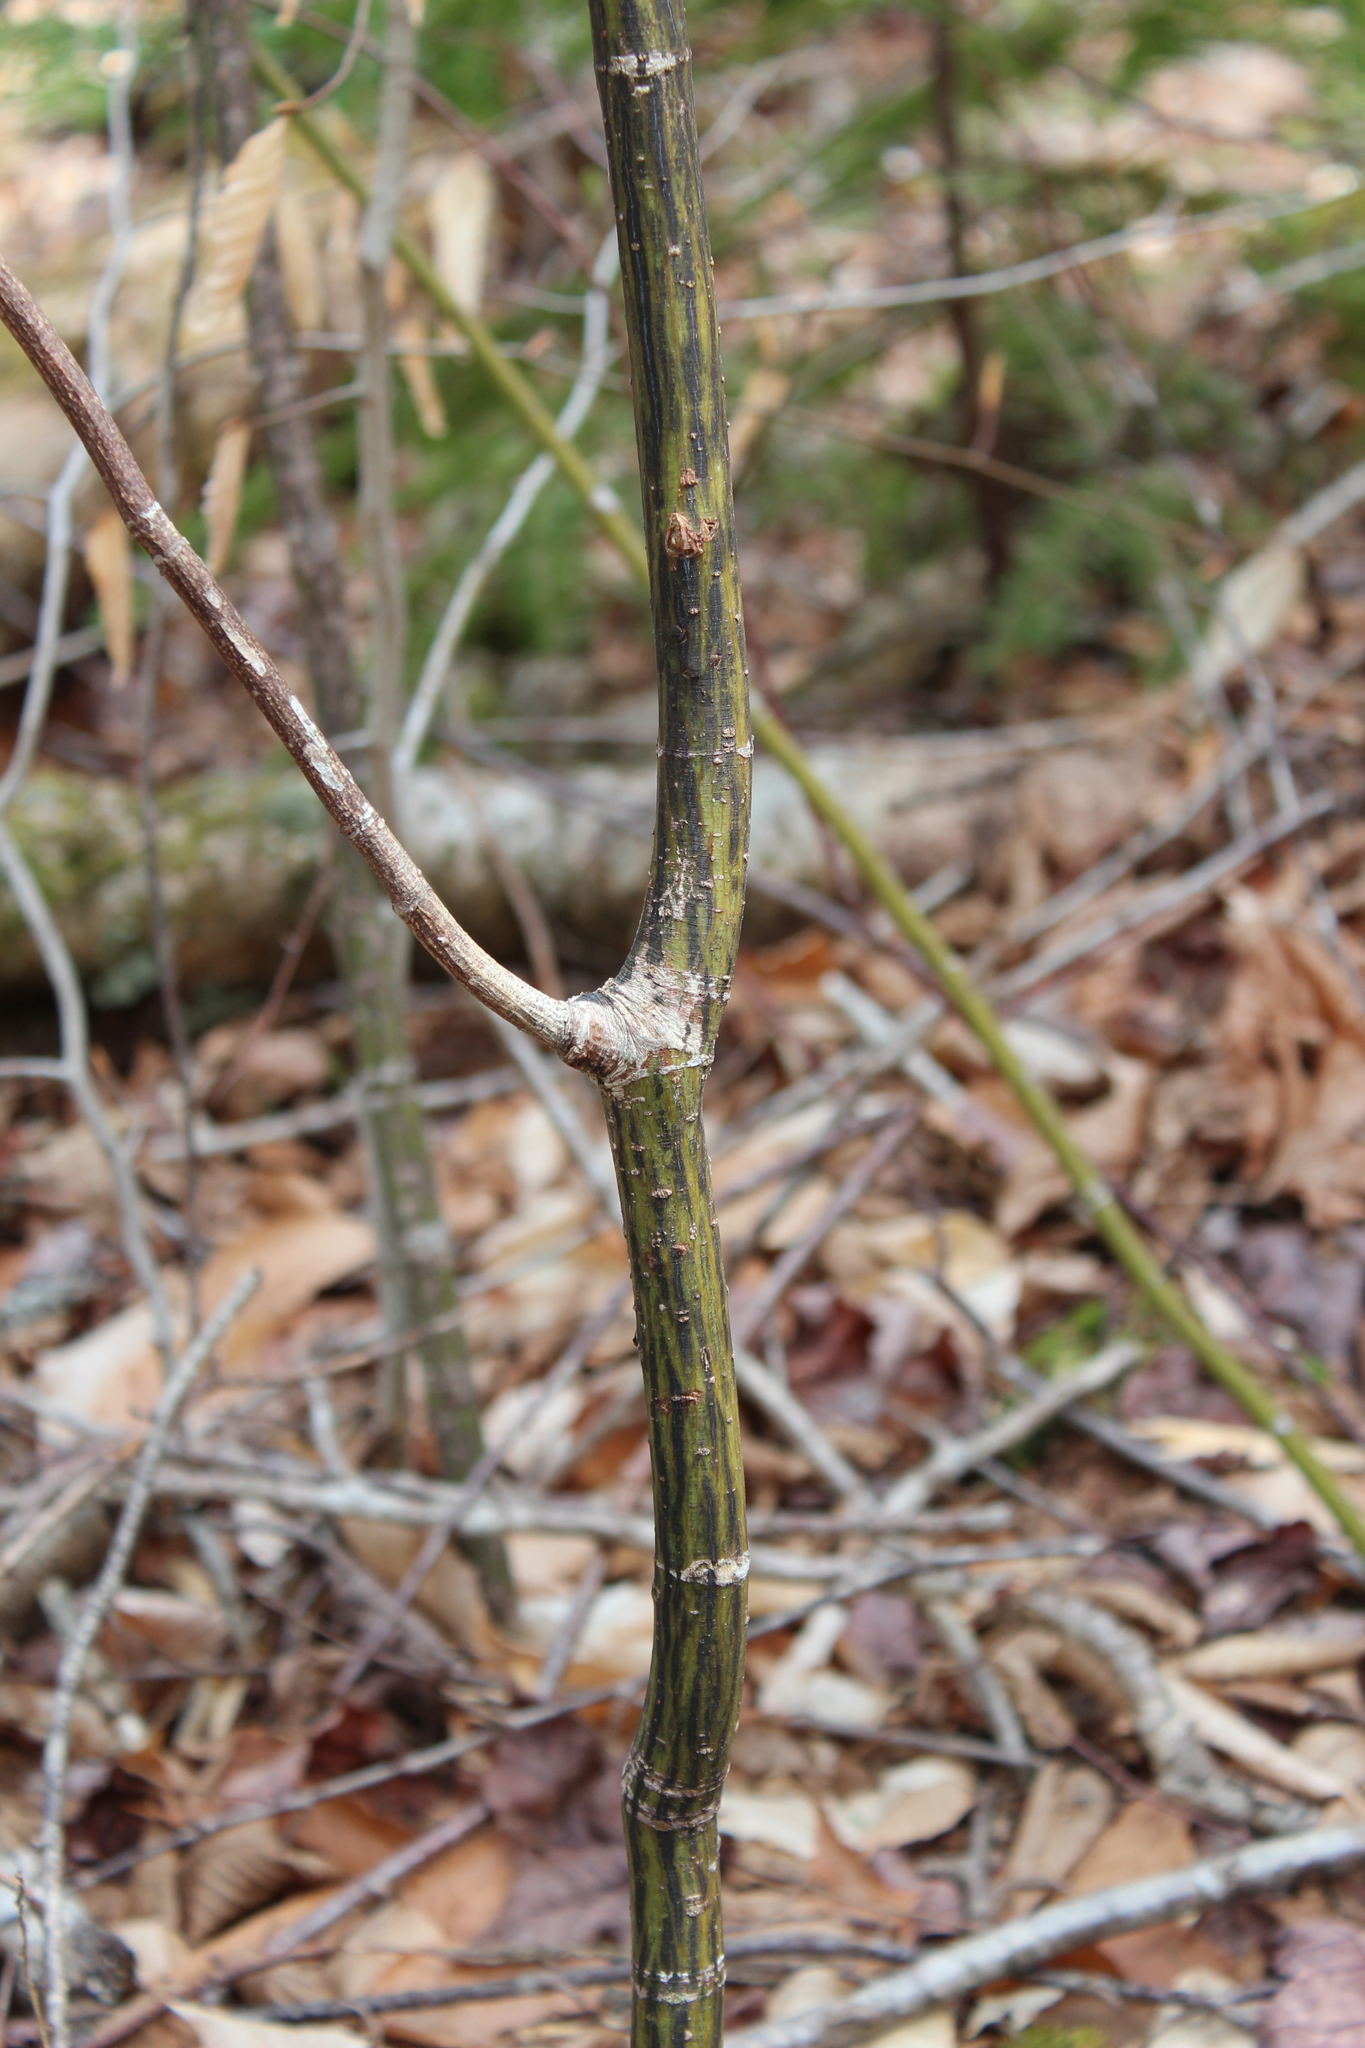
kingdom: Plantae
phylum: Tracheophyta
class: Magnoliopsida
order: Sapindales
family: Sapindaceae
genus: Acer
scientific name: Acer pensylvanicum
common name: Moosewood
